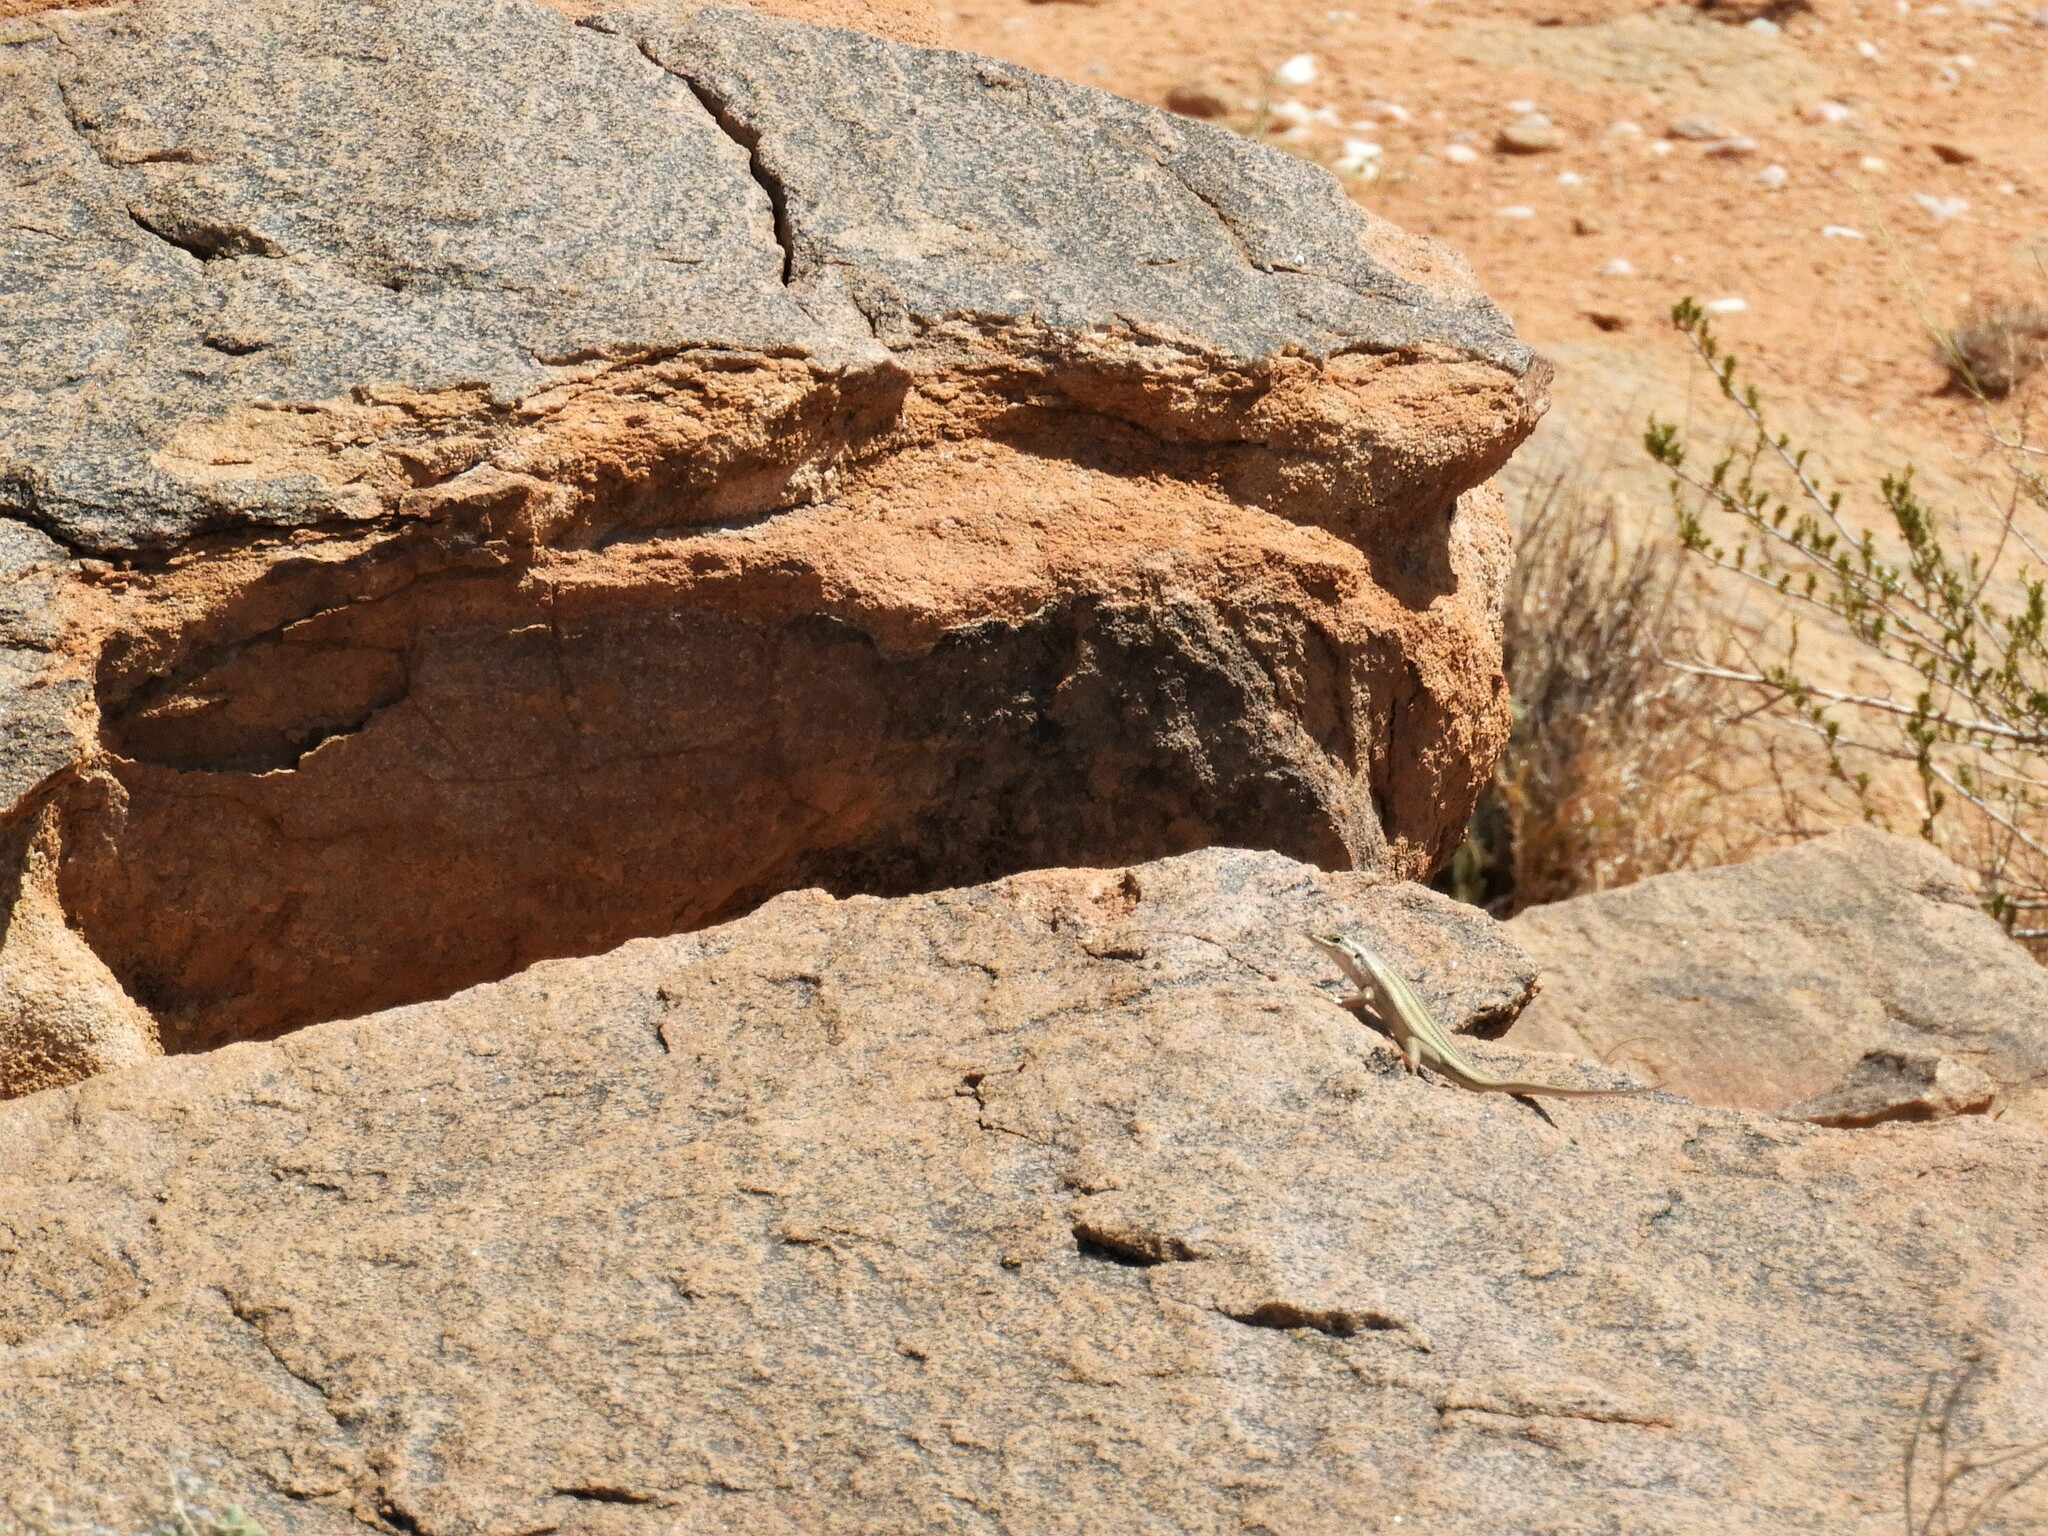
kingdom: Animalia
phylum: Chordata
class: Squamata
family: Scincidae
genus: Trachylepis
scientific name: Trachylepis sulcata
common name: Western rock skink
